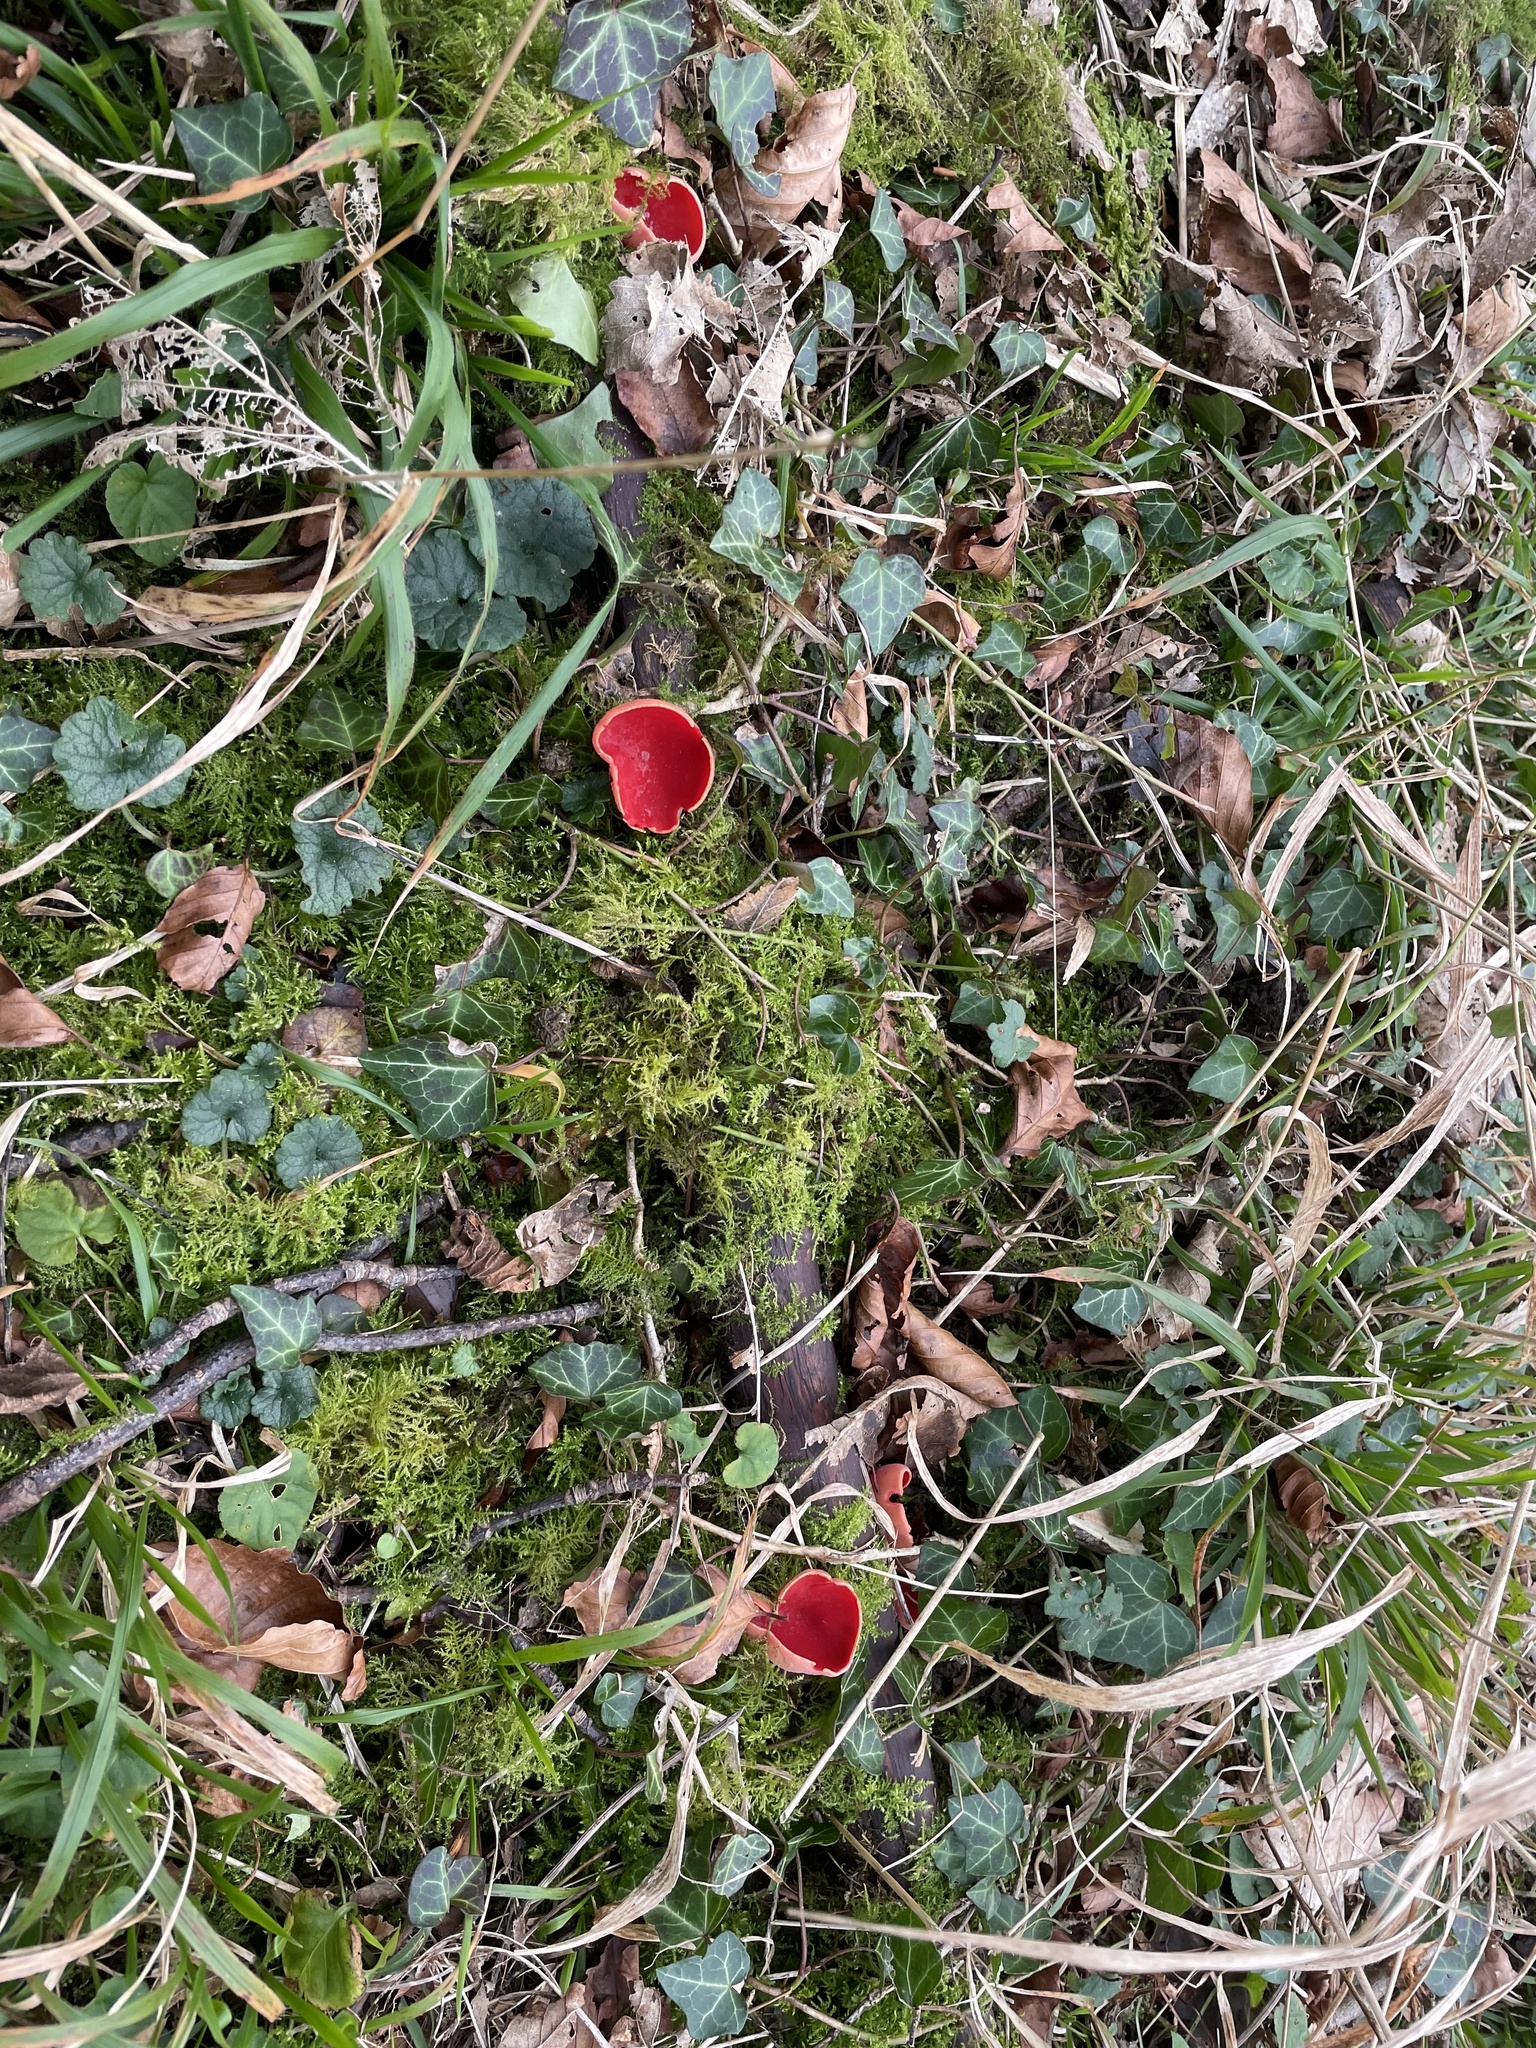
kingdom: Fungi
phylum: Ascomycota
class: Pezizomycetes
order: Pezizales
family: Sarcoscyphaceae
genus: Sarcoscypha
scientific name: Sarcoscypha
